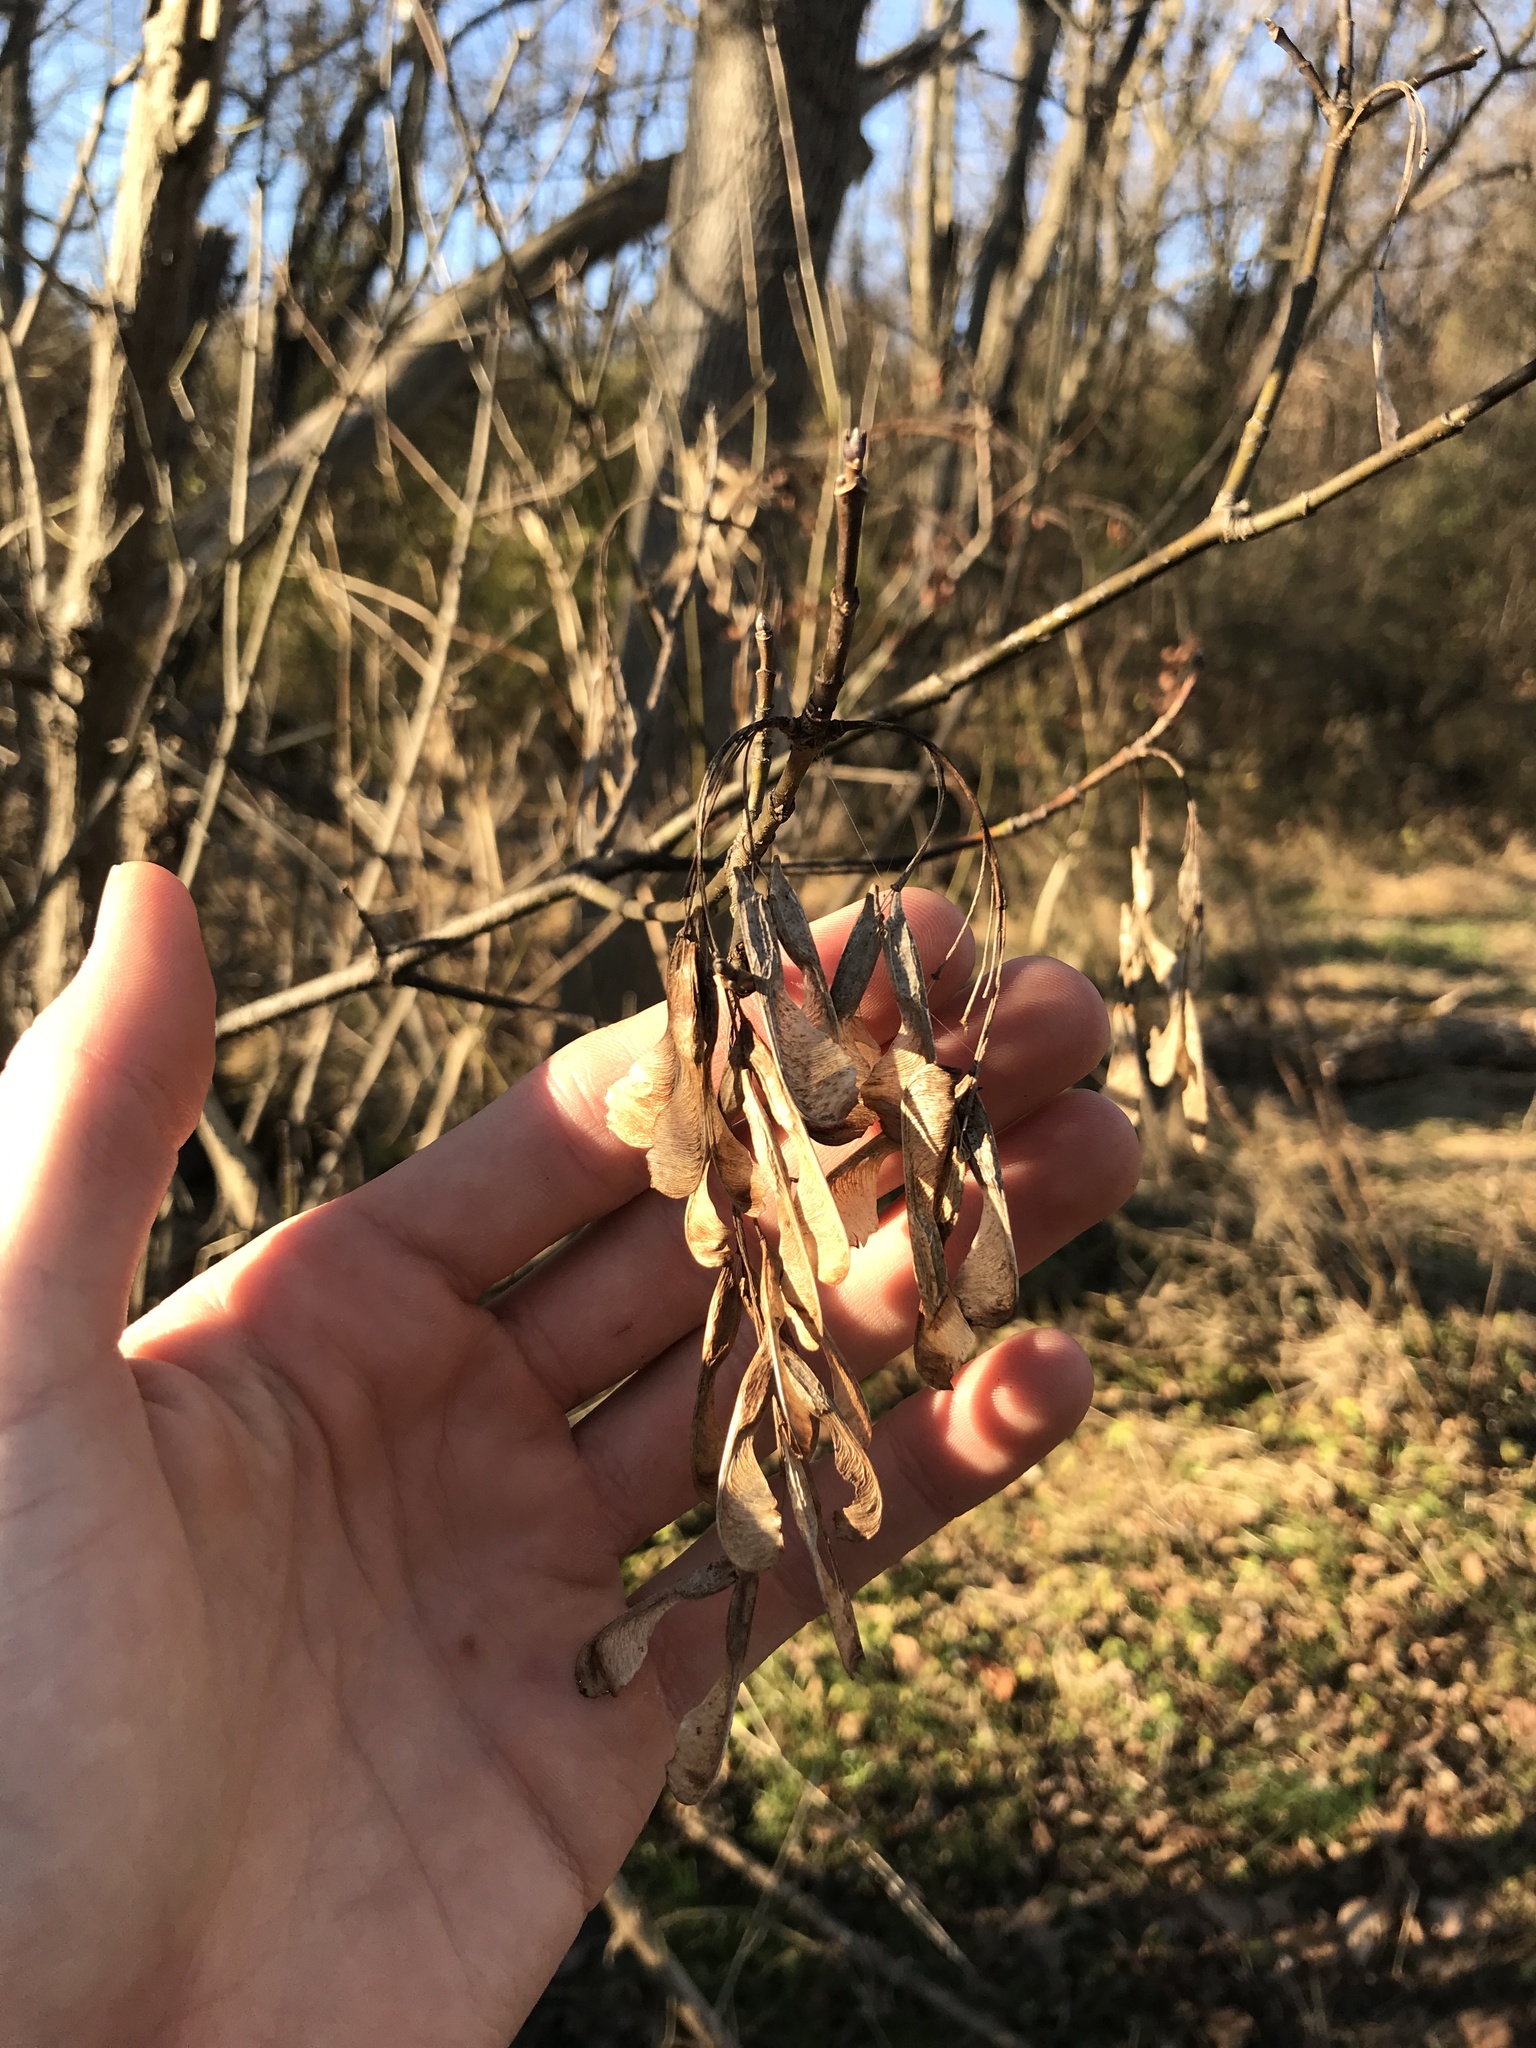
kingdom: Plantae
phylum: Tracheophyta
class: Magnoliopsida
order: Sapindales
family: Sapindaceae
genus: Acer
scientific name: Acer negundo
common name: Ashleaf maple
